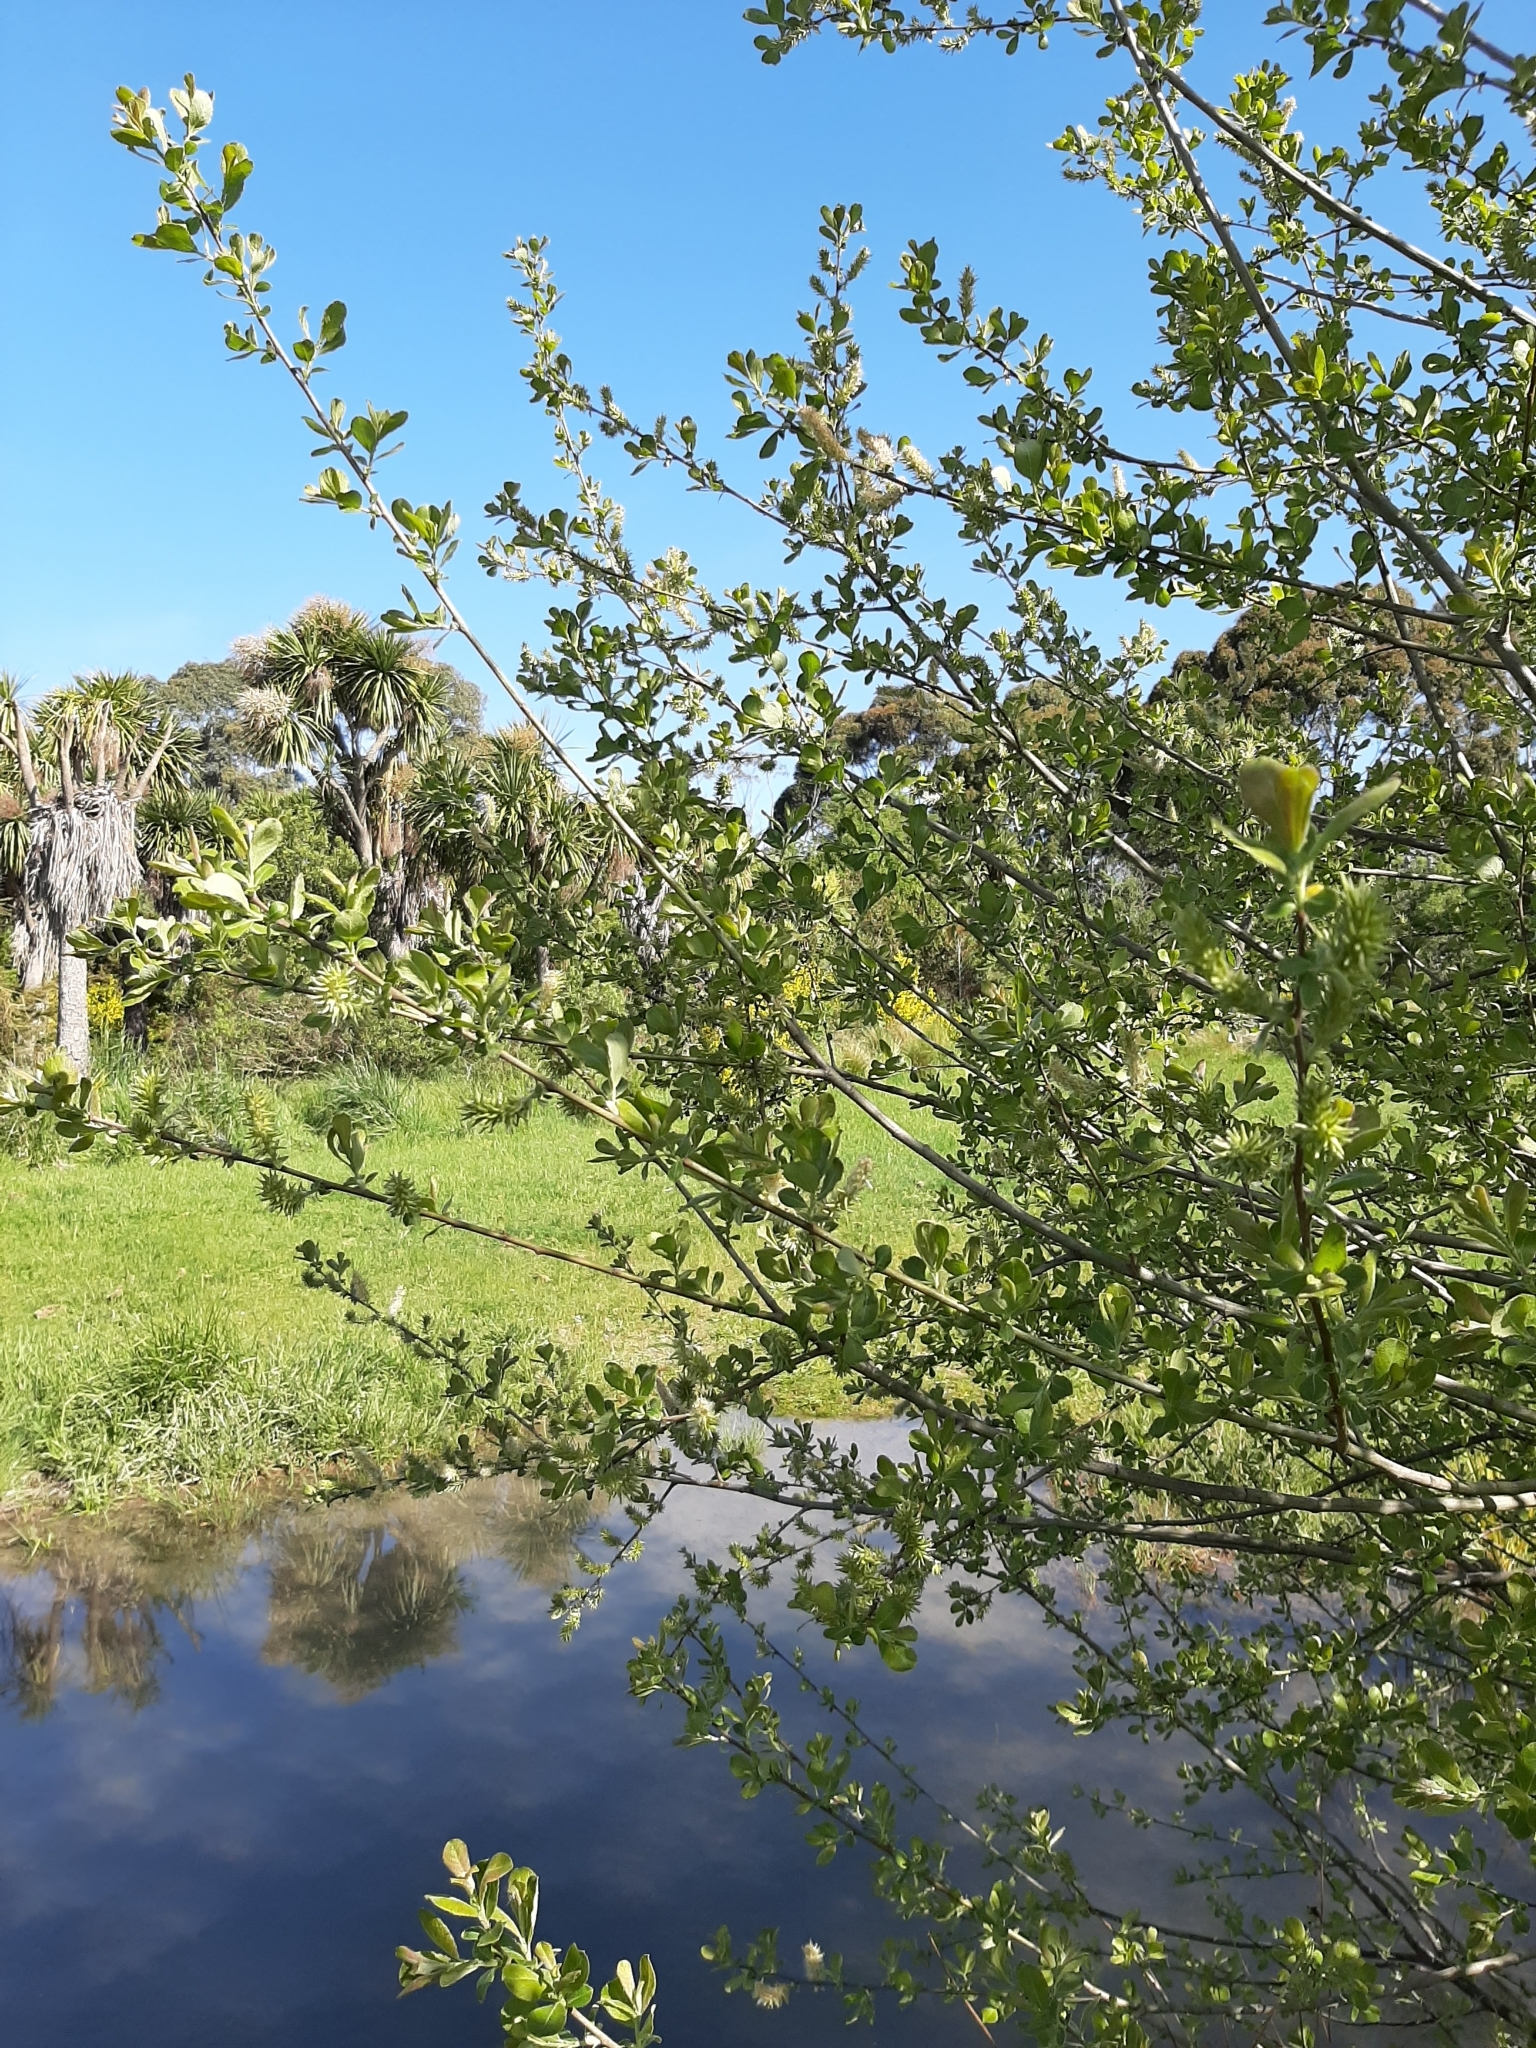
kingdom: Plantae
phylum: Tracheophyta
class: Magnoliopsida
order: Malpighiales
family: Salicaceae
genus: Salix
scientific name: Salix cinerea
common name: Common sallow
